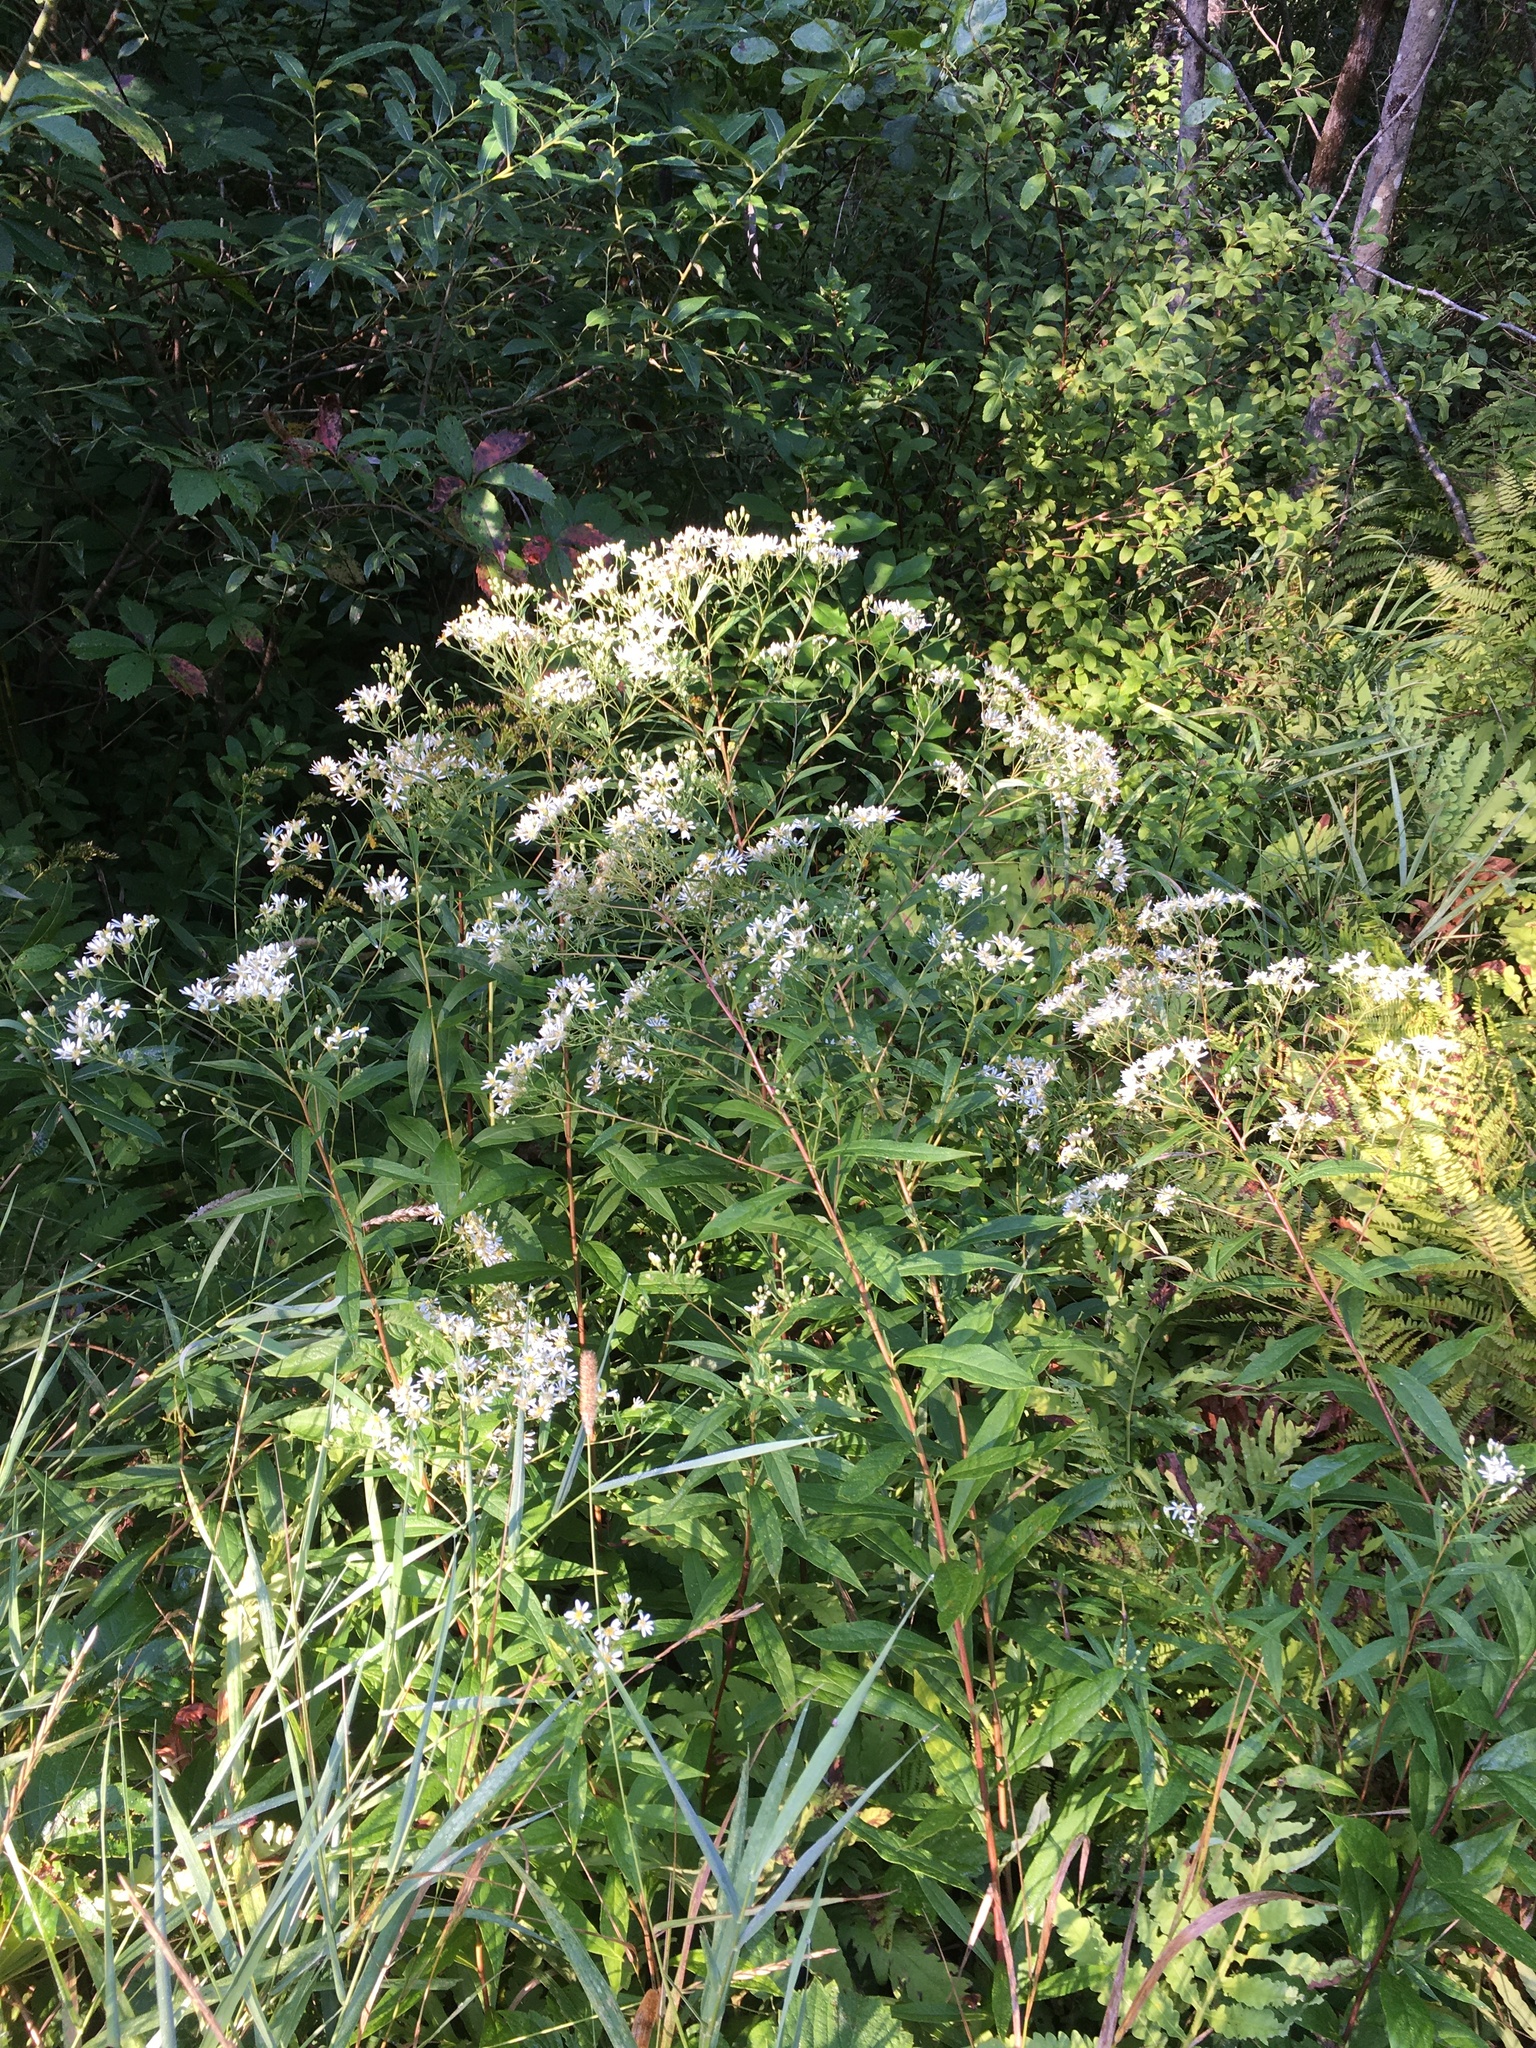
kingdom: Plantae
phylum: Tracheophyta
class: Magnoliopsida
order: Asterales
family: Asteraceae
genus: Doellingeria
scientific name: Doellingeria umbellata
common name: Flat-top white aster
